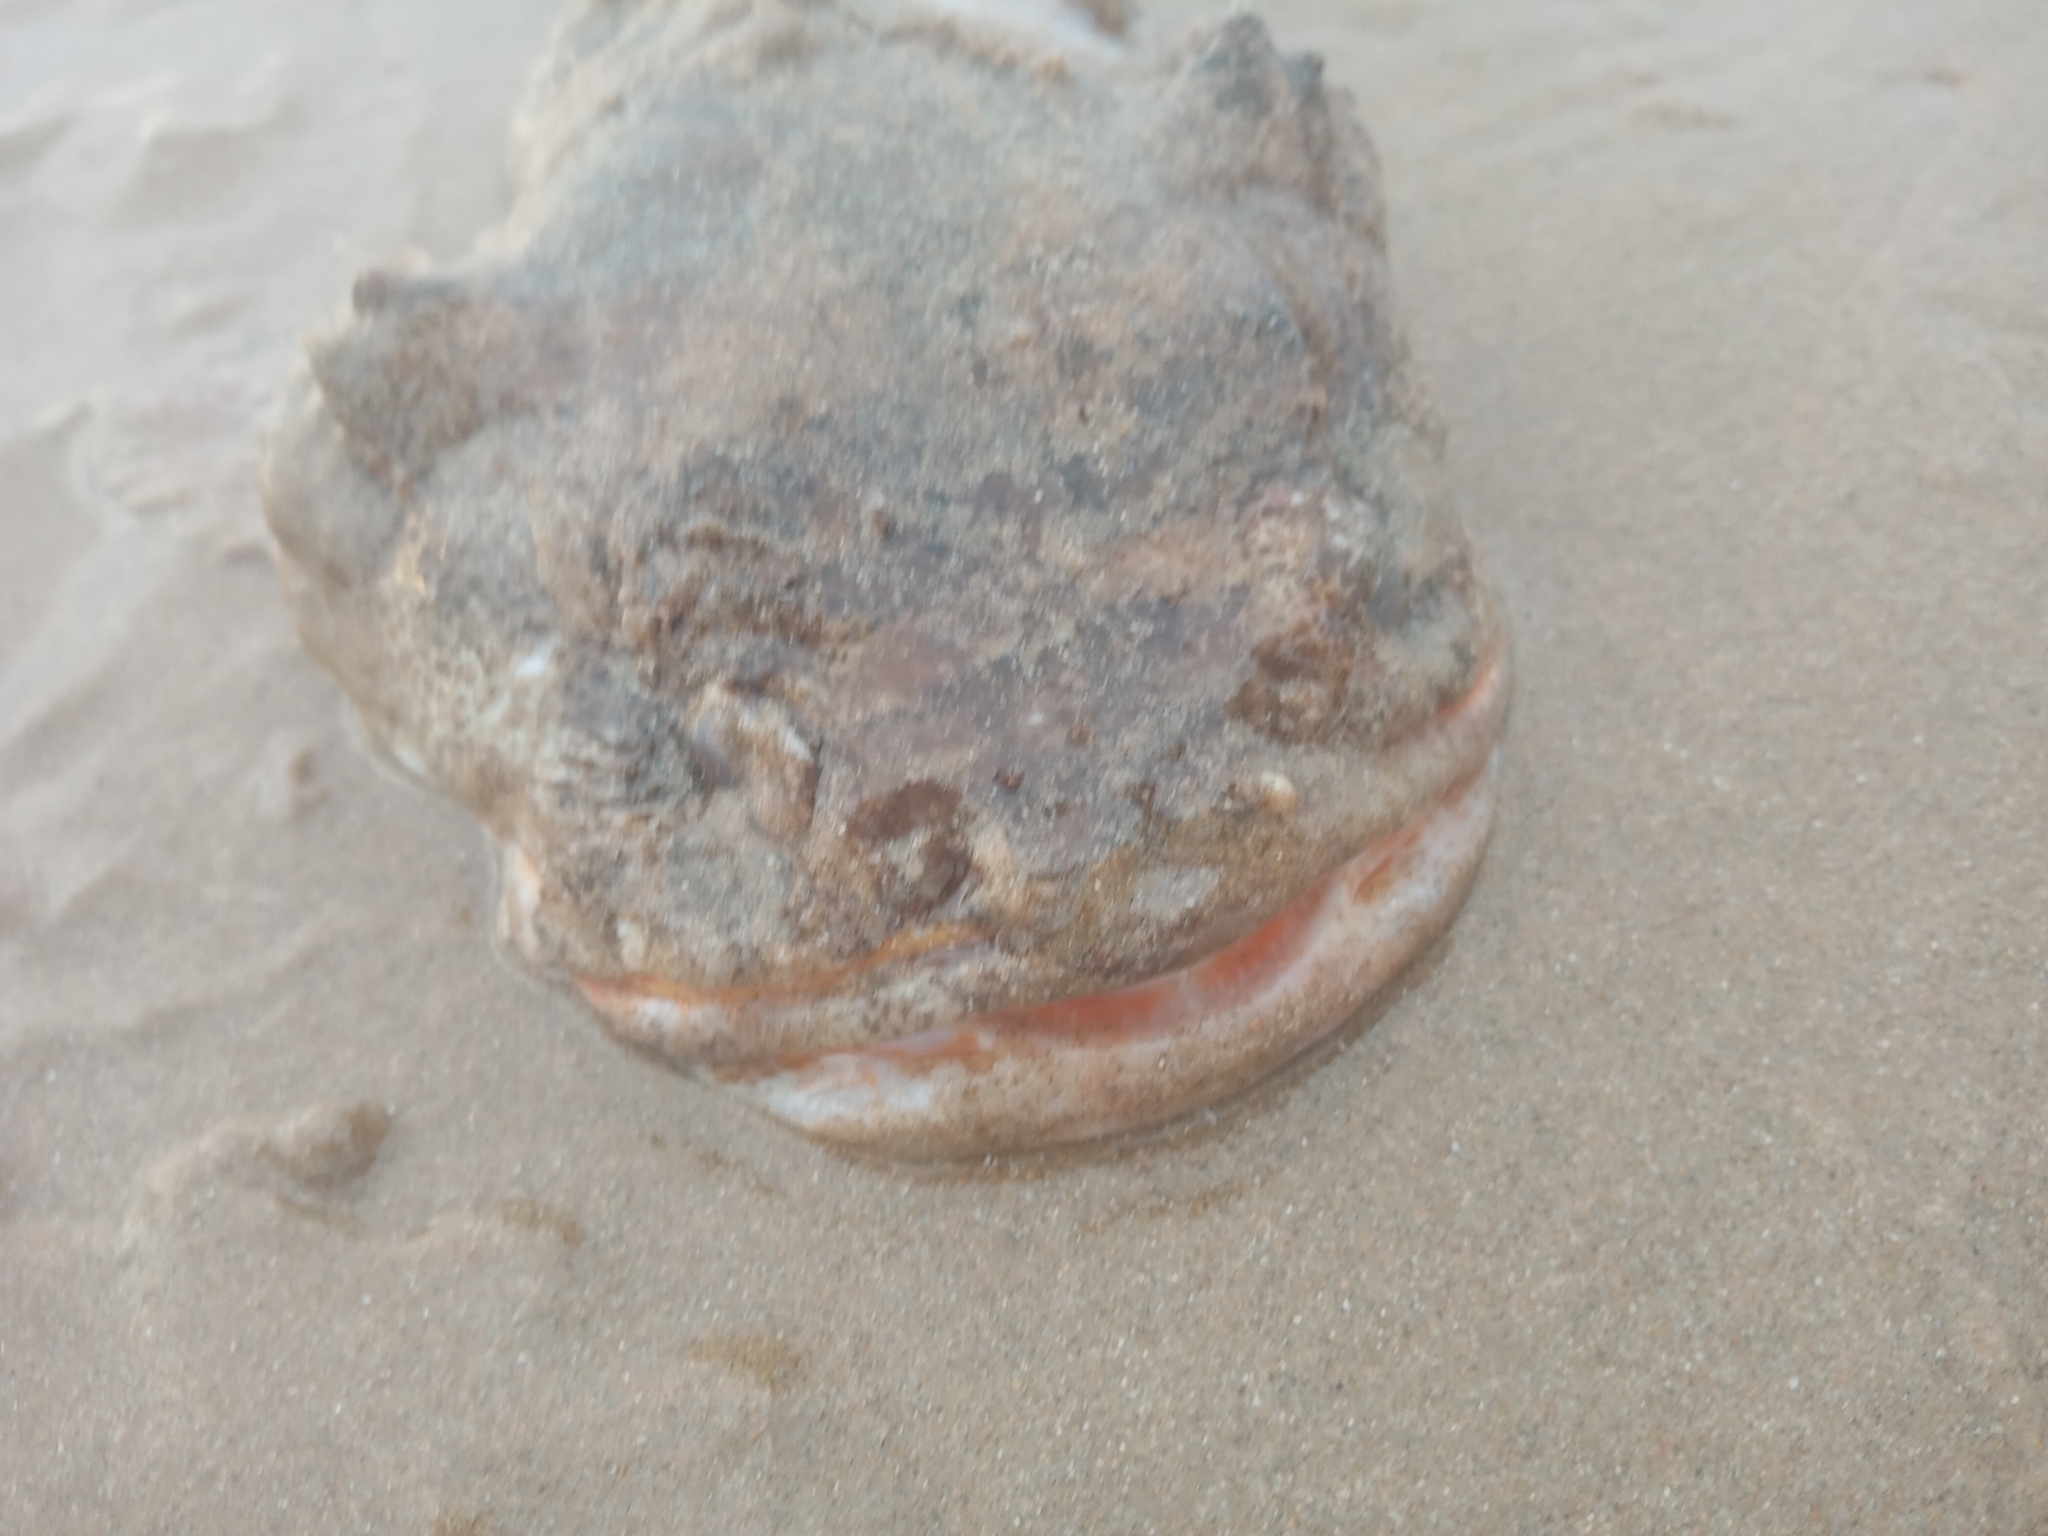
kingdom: Animalia
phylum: Chordata
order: Batrachoidiformes
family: Batrachoididae
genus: Halobatrachus
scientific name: Halobatrachus didactylus
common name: Lusitanian toadfish
